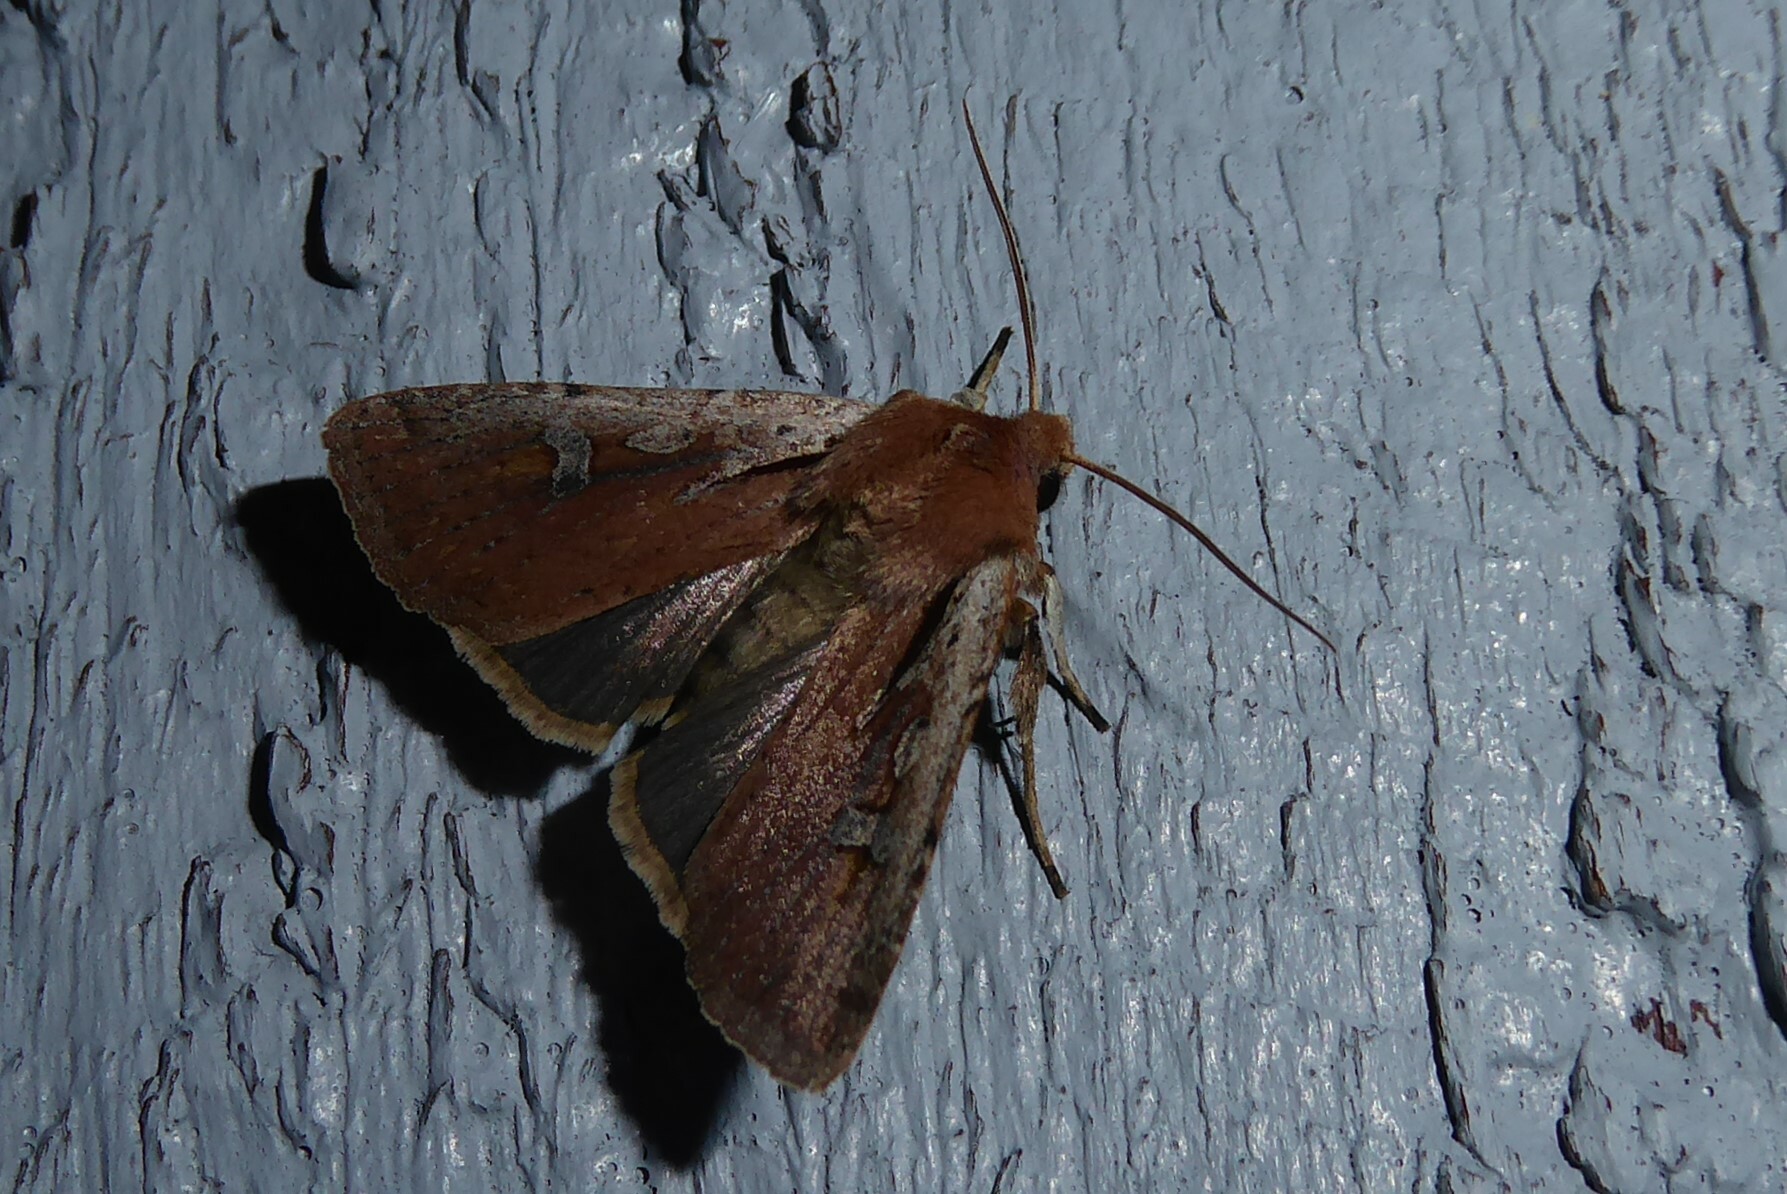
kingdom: Animalia
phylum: Arthropoda
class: Insecta
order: Lepidoptera
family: Noctuidae
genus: Ichneutica
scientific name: Ichneutica atristriga
